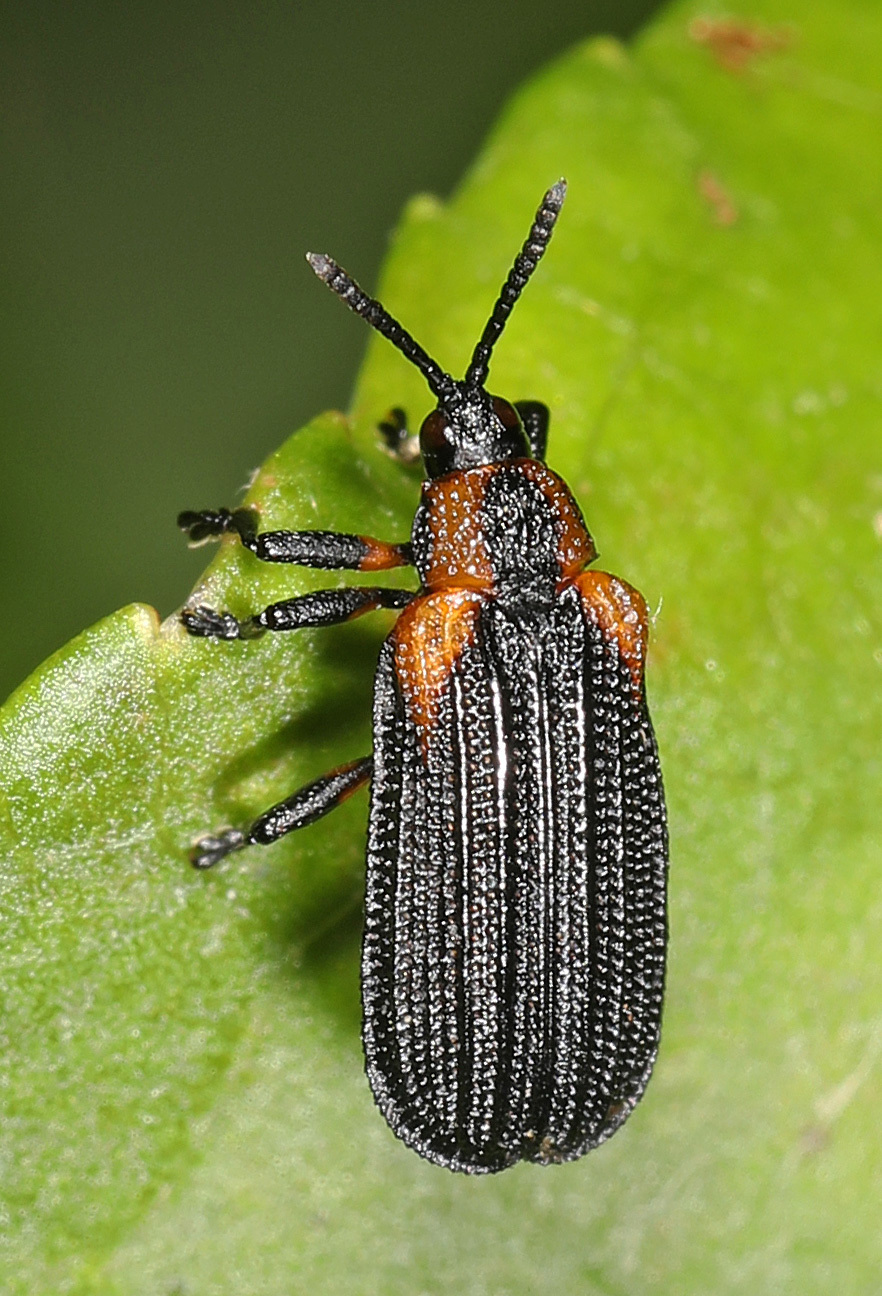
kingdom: Animalia
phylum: Arthropoda
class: Insecta
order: Coleoptera
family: Chrysomelidae
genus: Odontota
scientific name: Odontota scapularis
